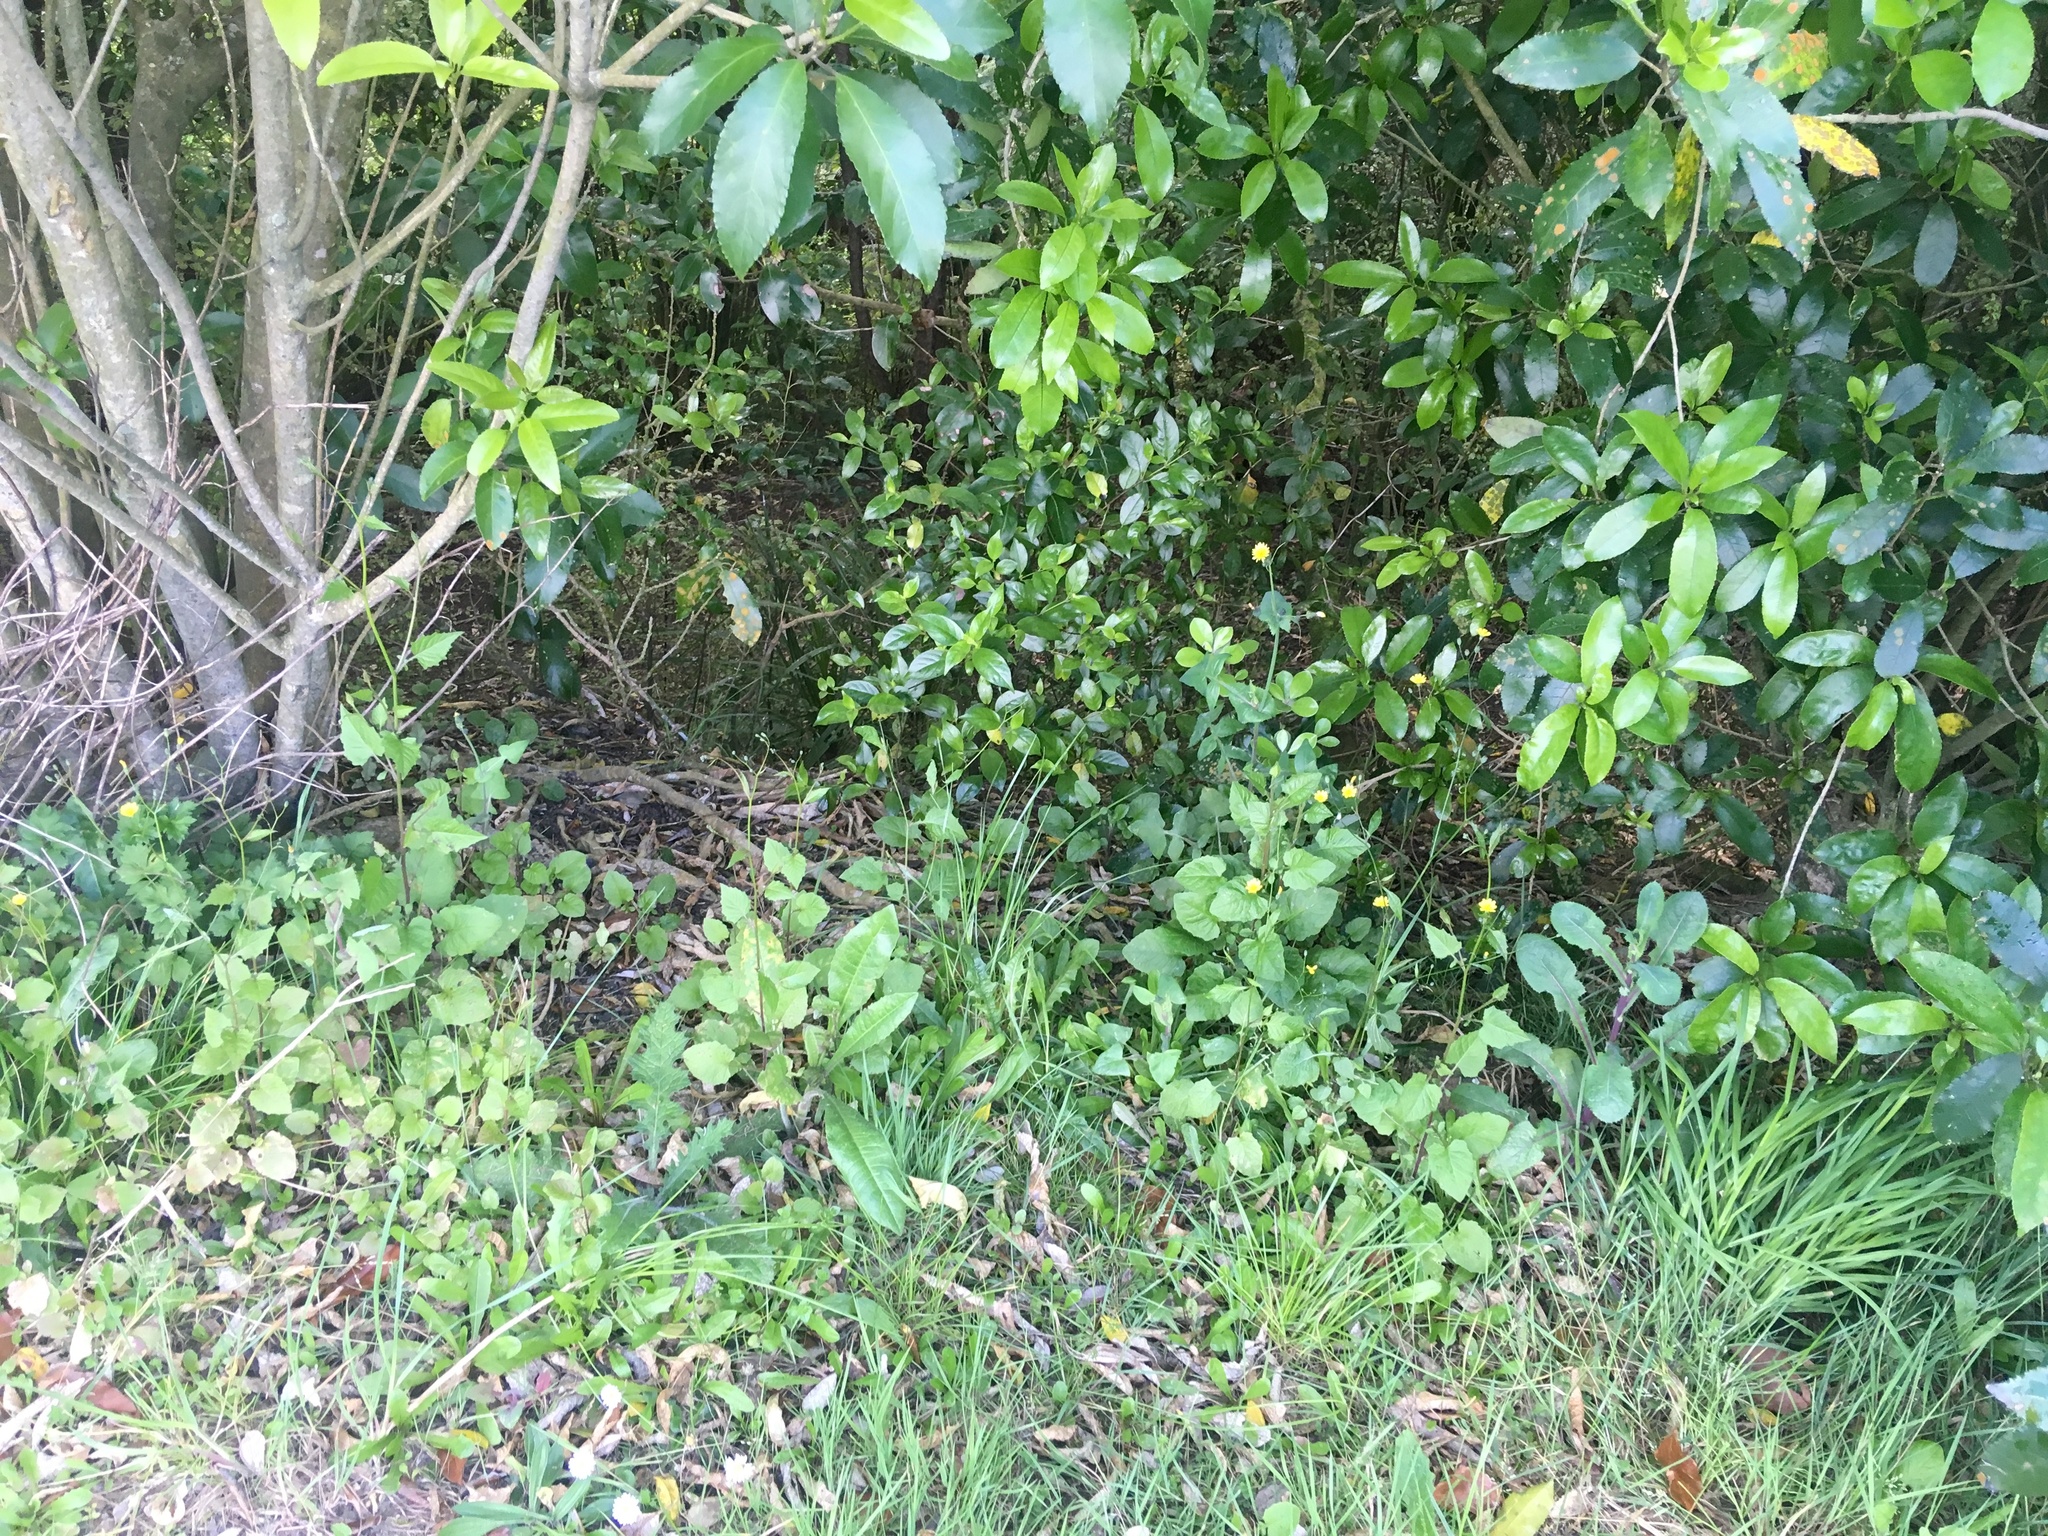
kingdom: Plantae
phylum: Tracheophyta
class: Magnoliopsida
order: Asterales
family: Asteraceae
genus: Cirsium
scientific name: Cirsium vulgare
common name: Bull thistle
